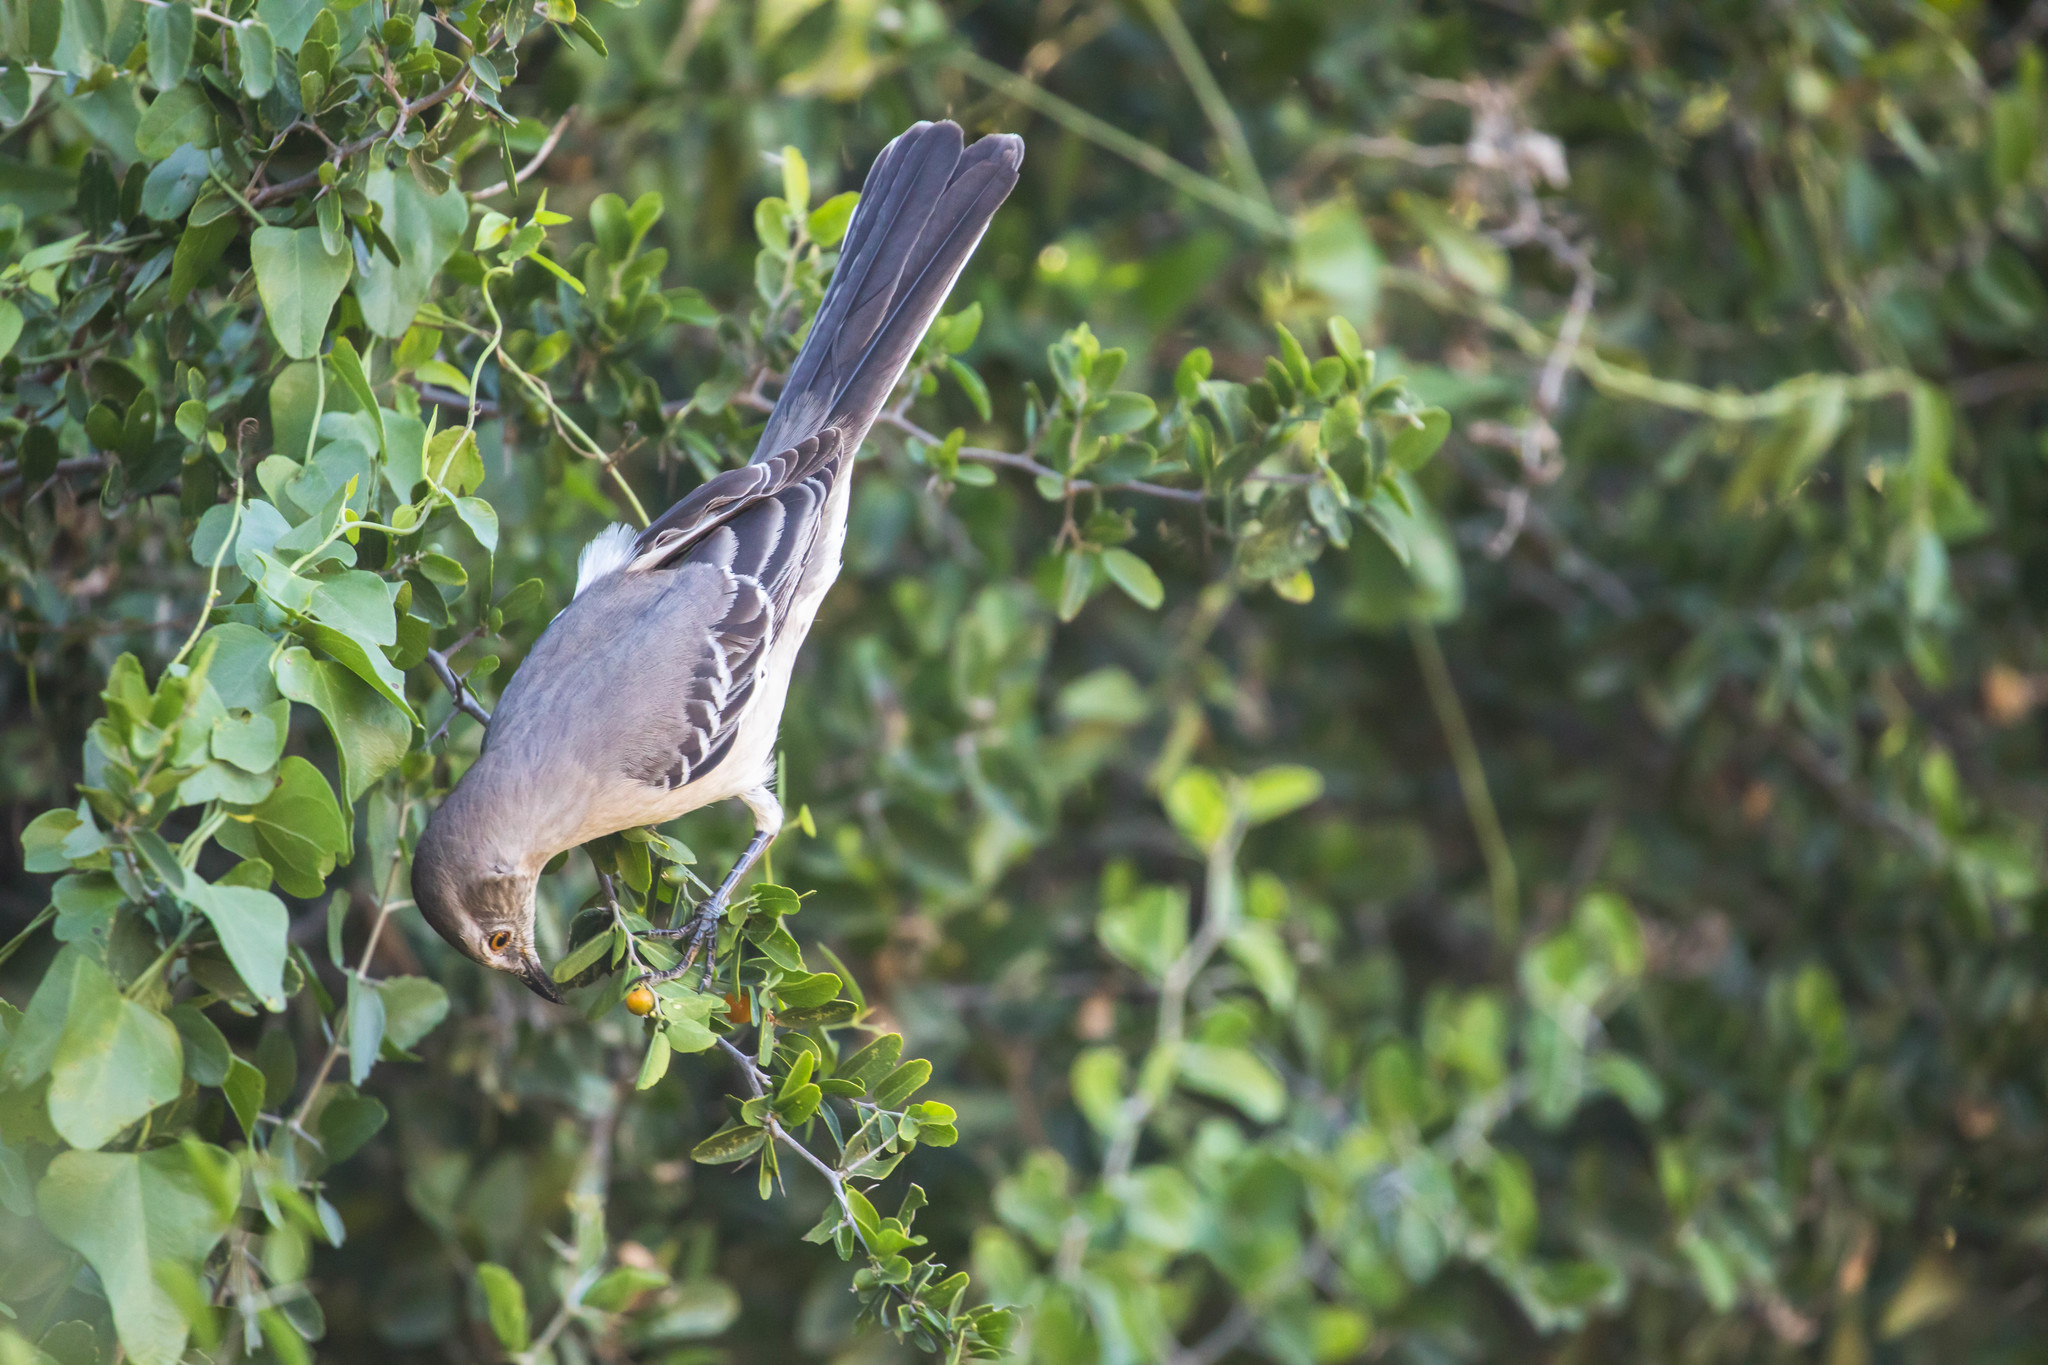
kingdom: Animalia
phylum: Chordata
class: Aves
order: Passeriformes
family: Mimidae
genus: Mimus
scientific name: Mimus polyglottos
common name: Northern mockingbird
